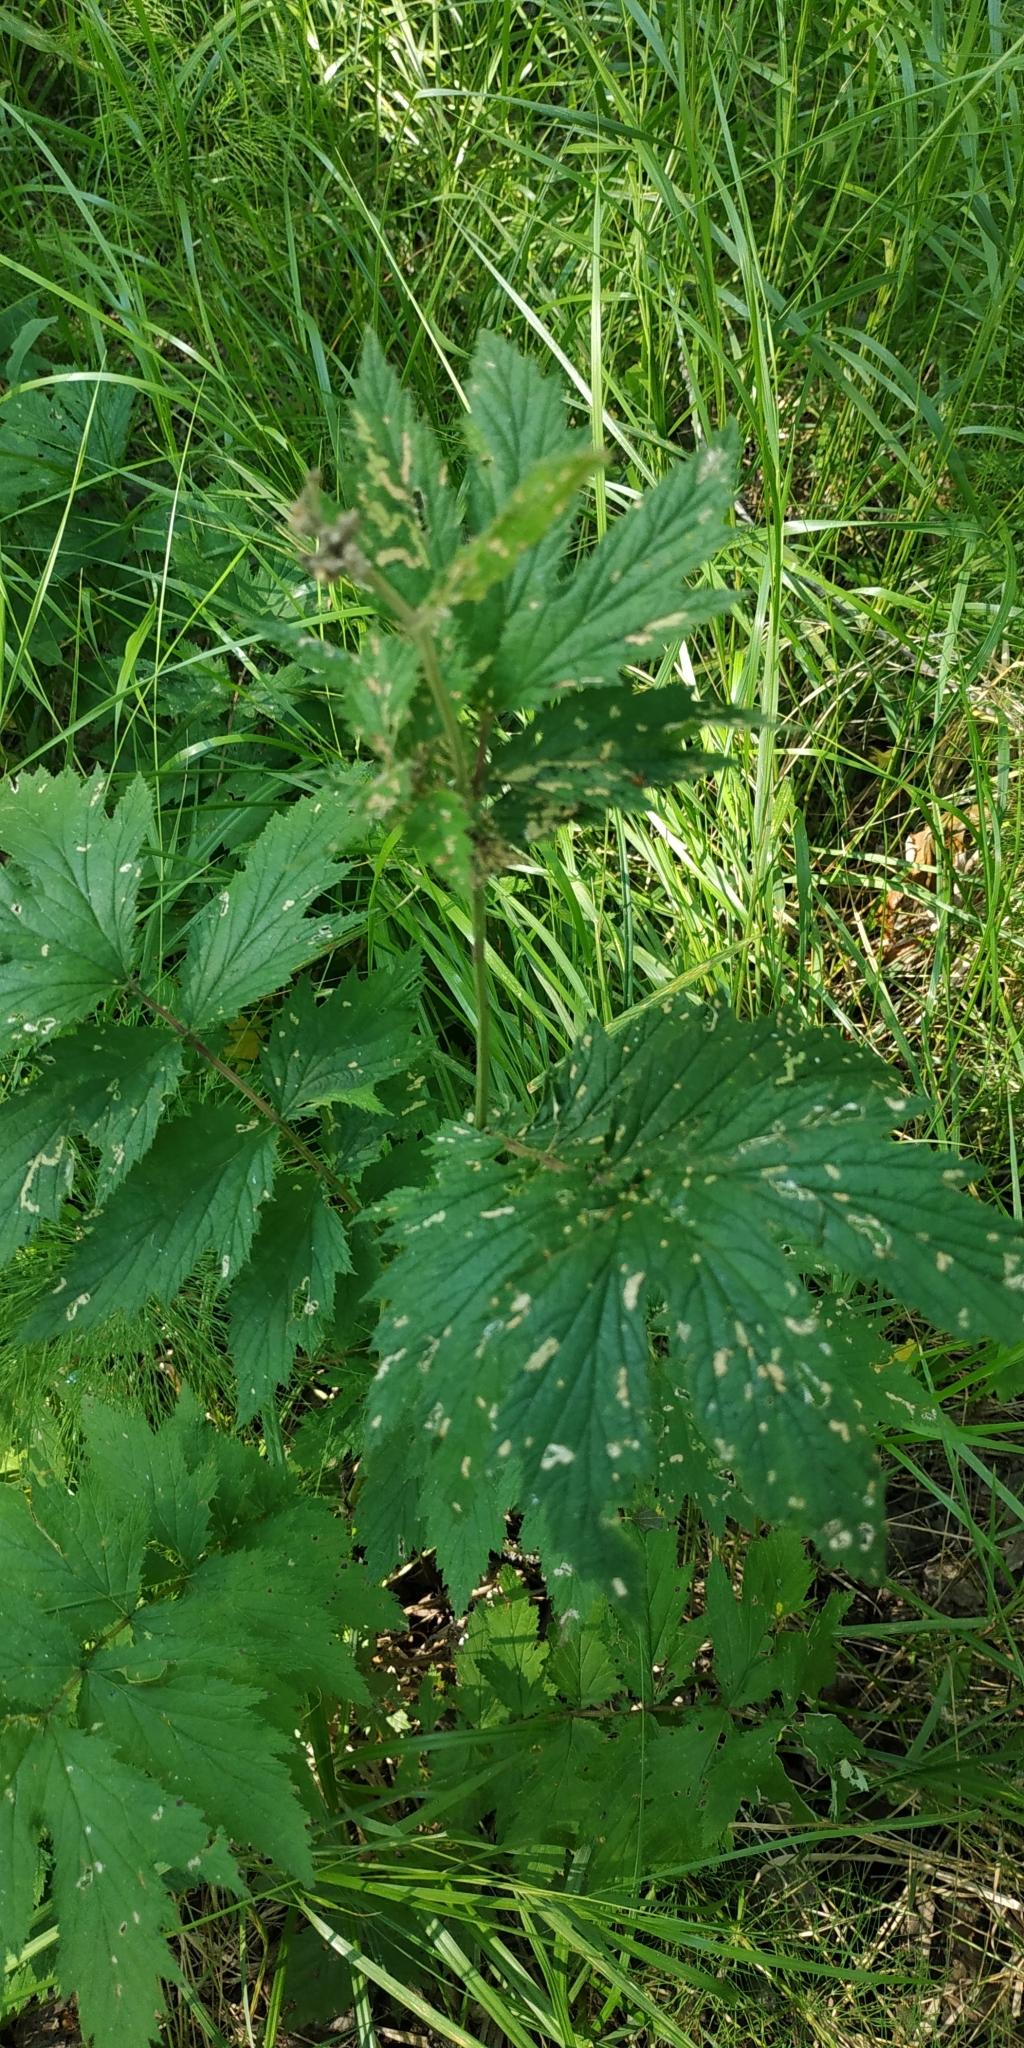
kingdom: Plantae
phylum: Tracheophyta
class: Magnoliopsida
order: Rosales
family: Rosaceae
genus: Filipendula
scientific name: Filipendula ulmaria
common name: Meadowsweet
